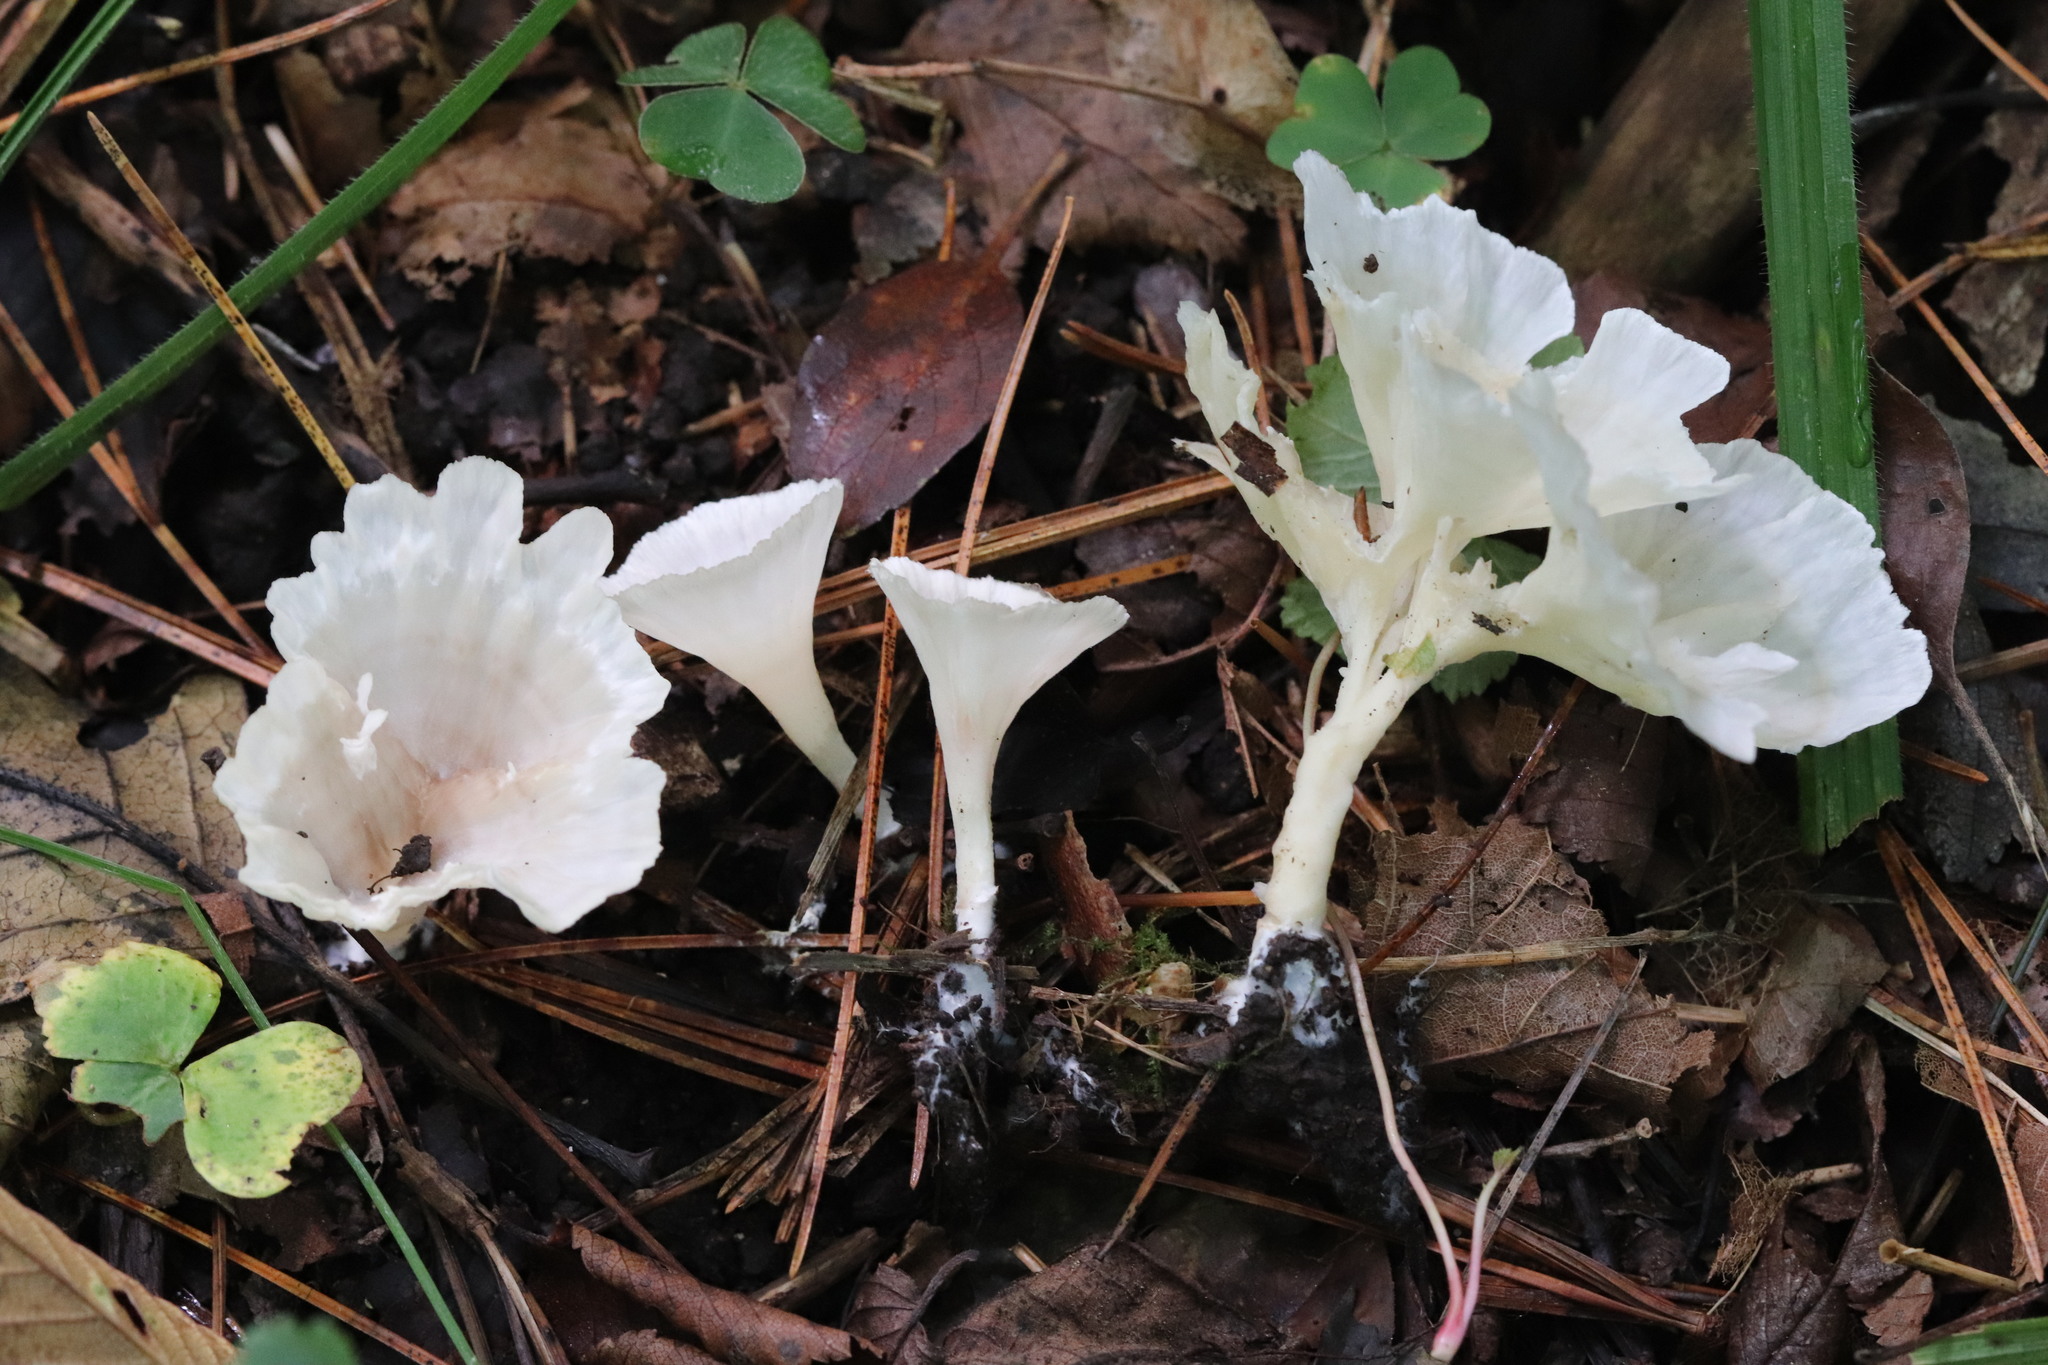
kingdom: Fungi
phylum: Basidiomycota
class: Agaricomycetes
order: Hymenochaetales
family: Rickenellaceae
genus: Cotylidia
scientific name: Cotylidia diaphana
